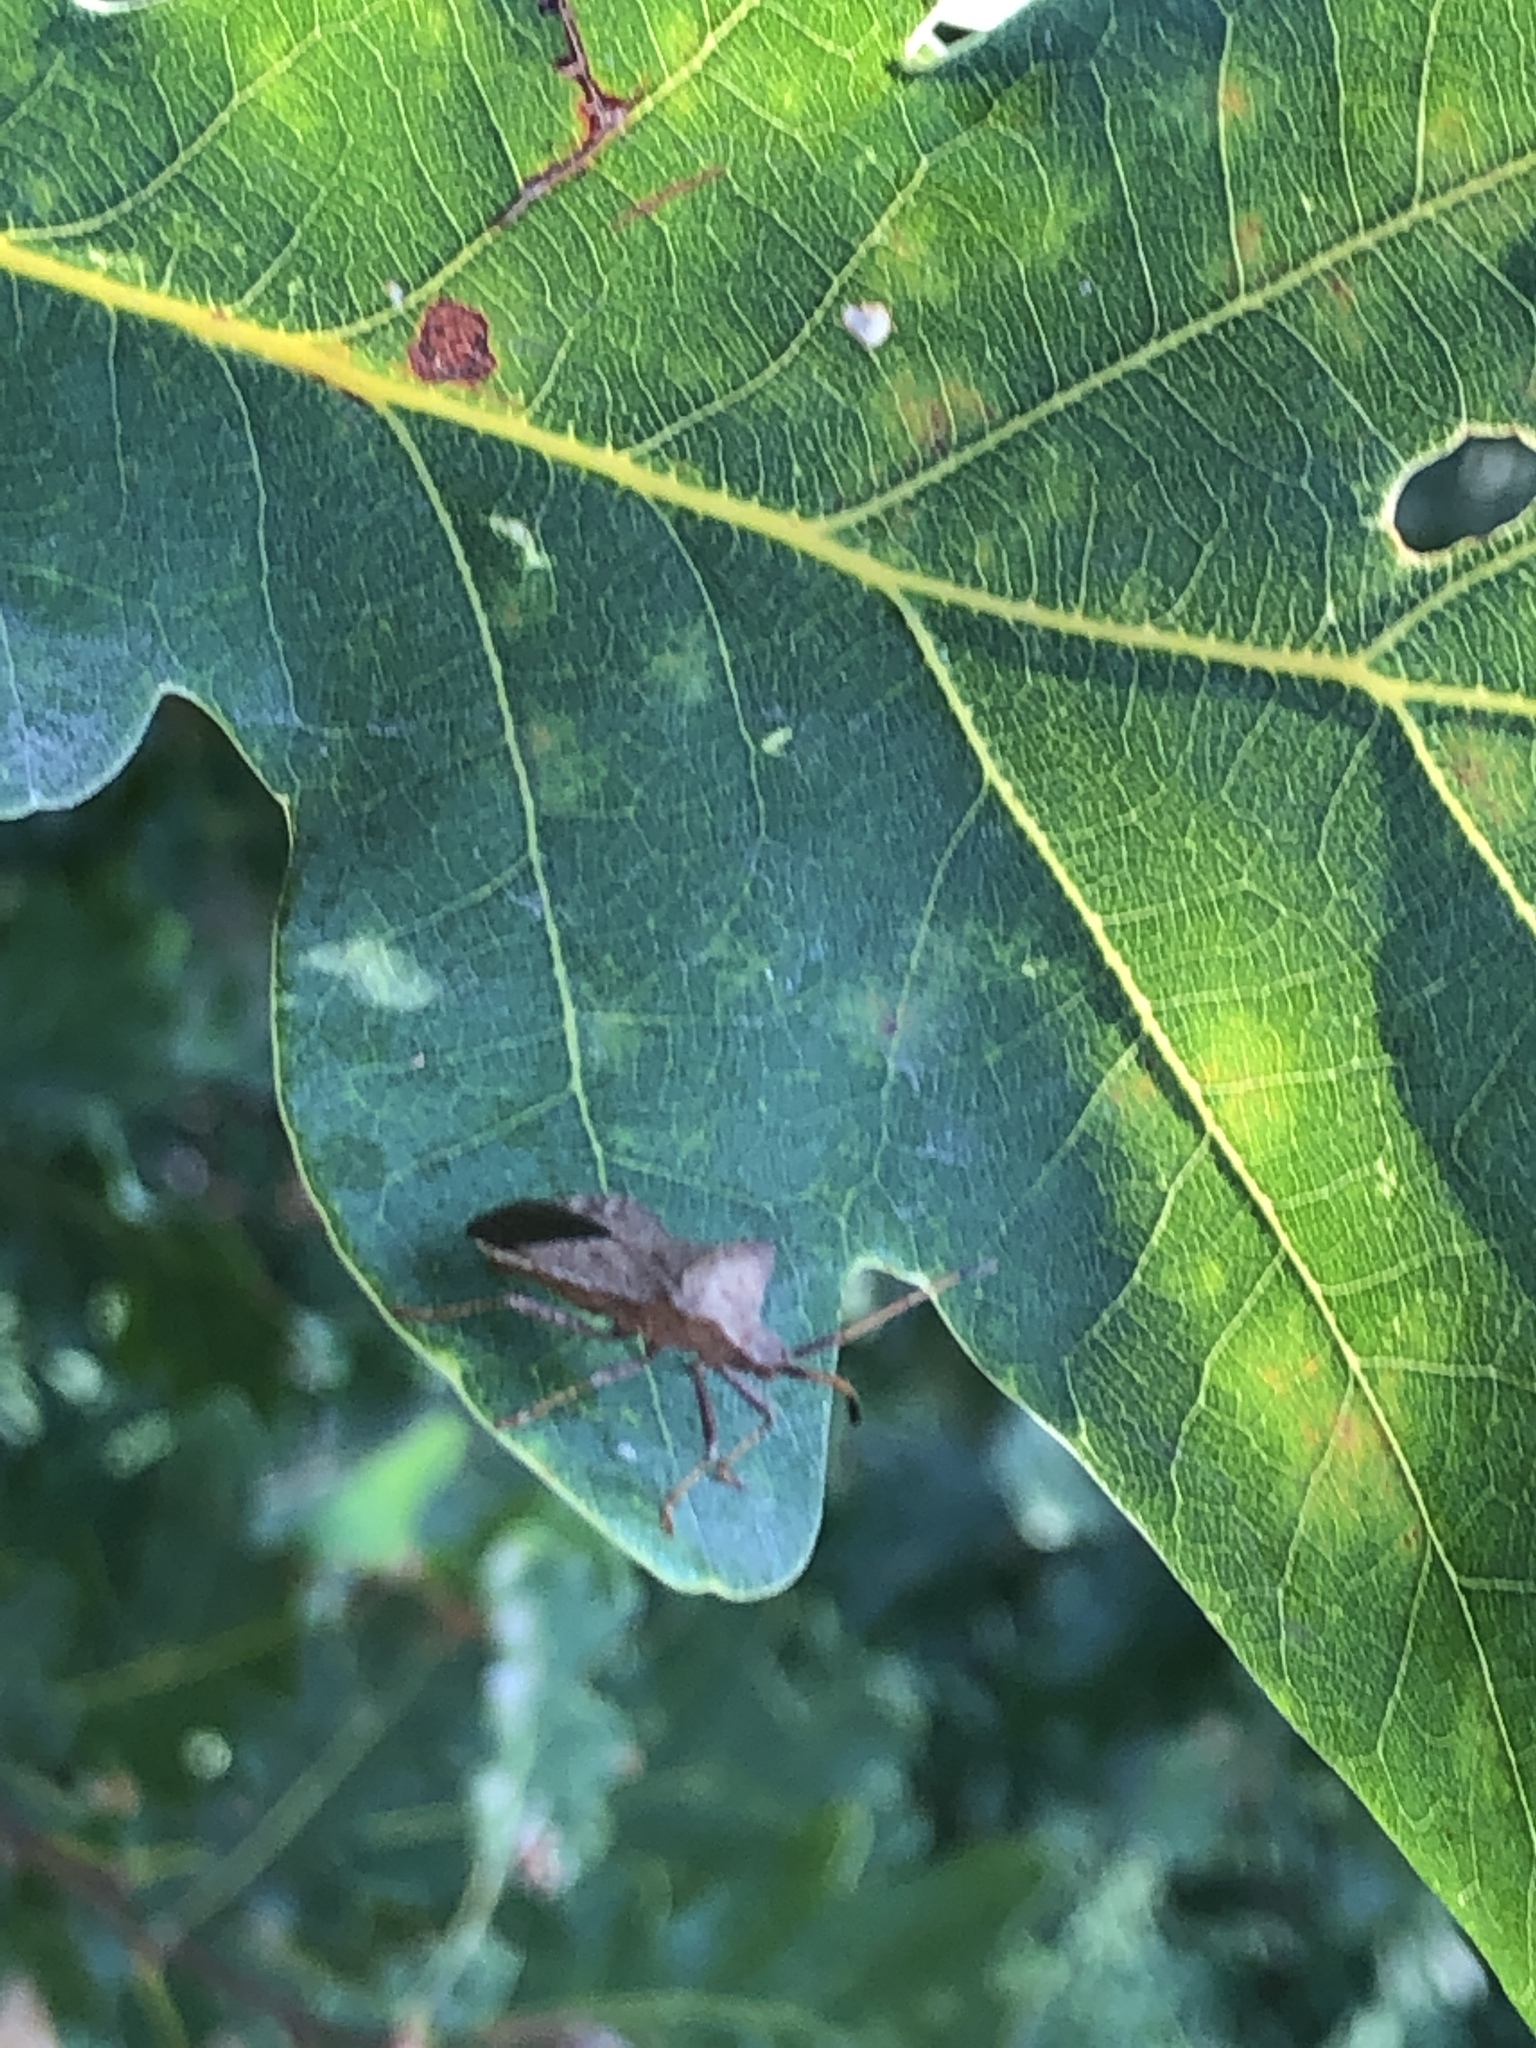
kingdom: Animalia
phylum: Arthropoda
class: Insecta
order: Hemiptera
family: Coreidae
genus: Coreus
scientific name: Coreus marginatus
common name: Dock bug
